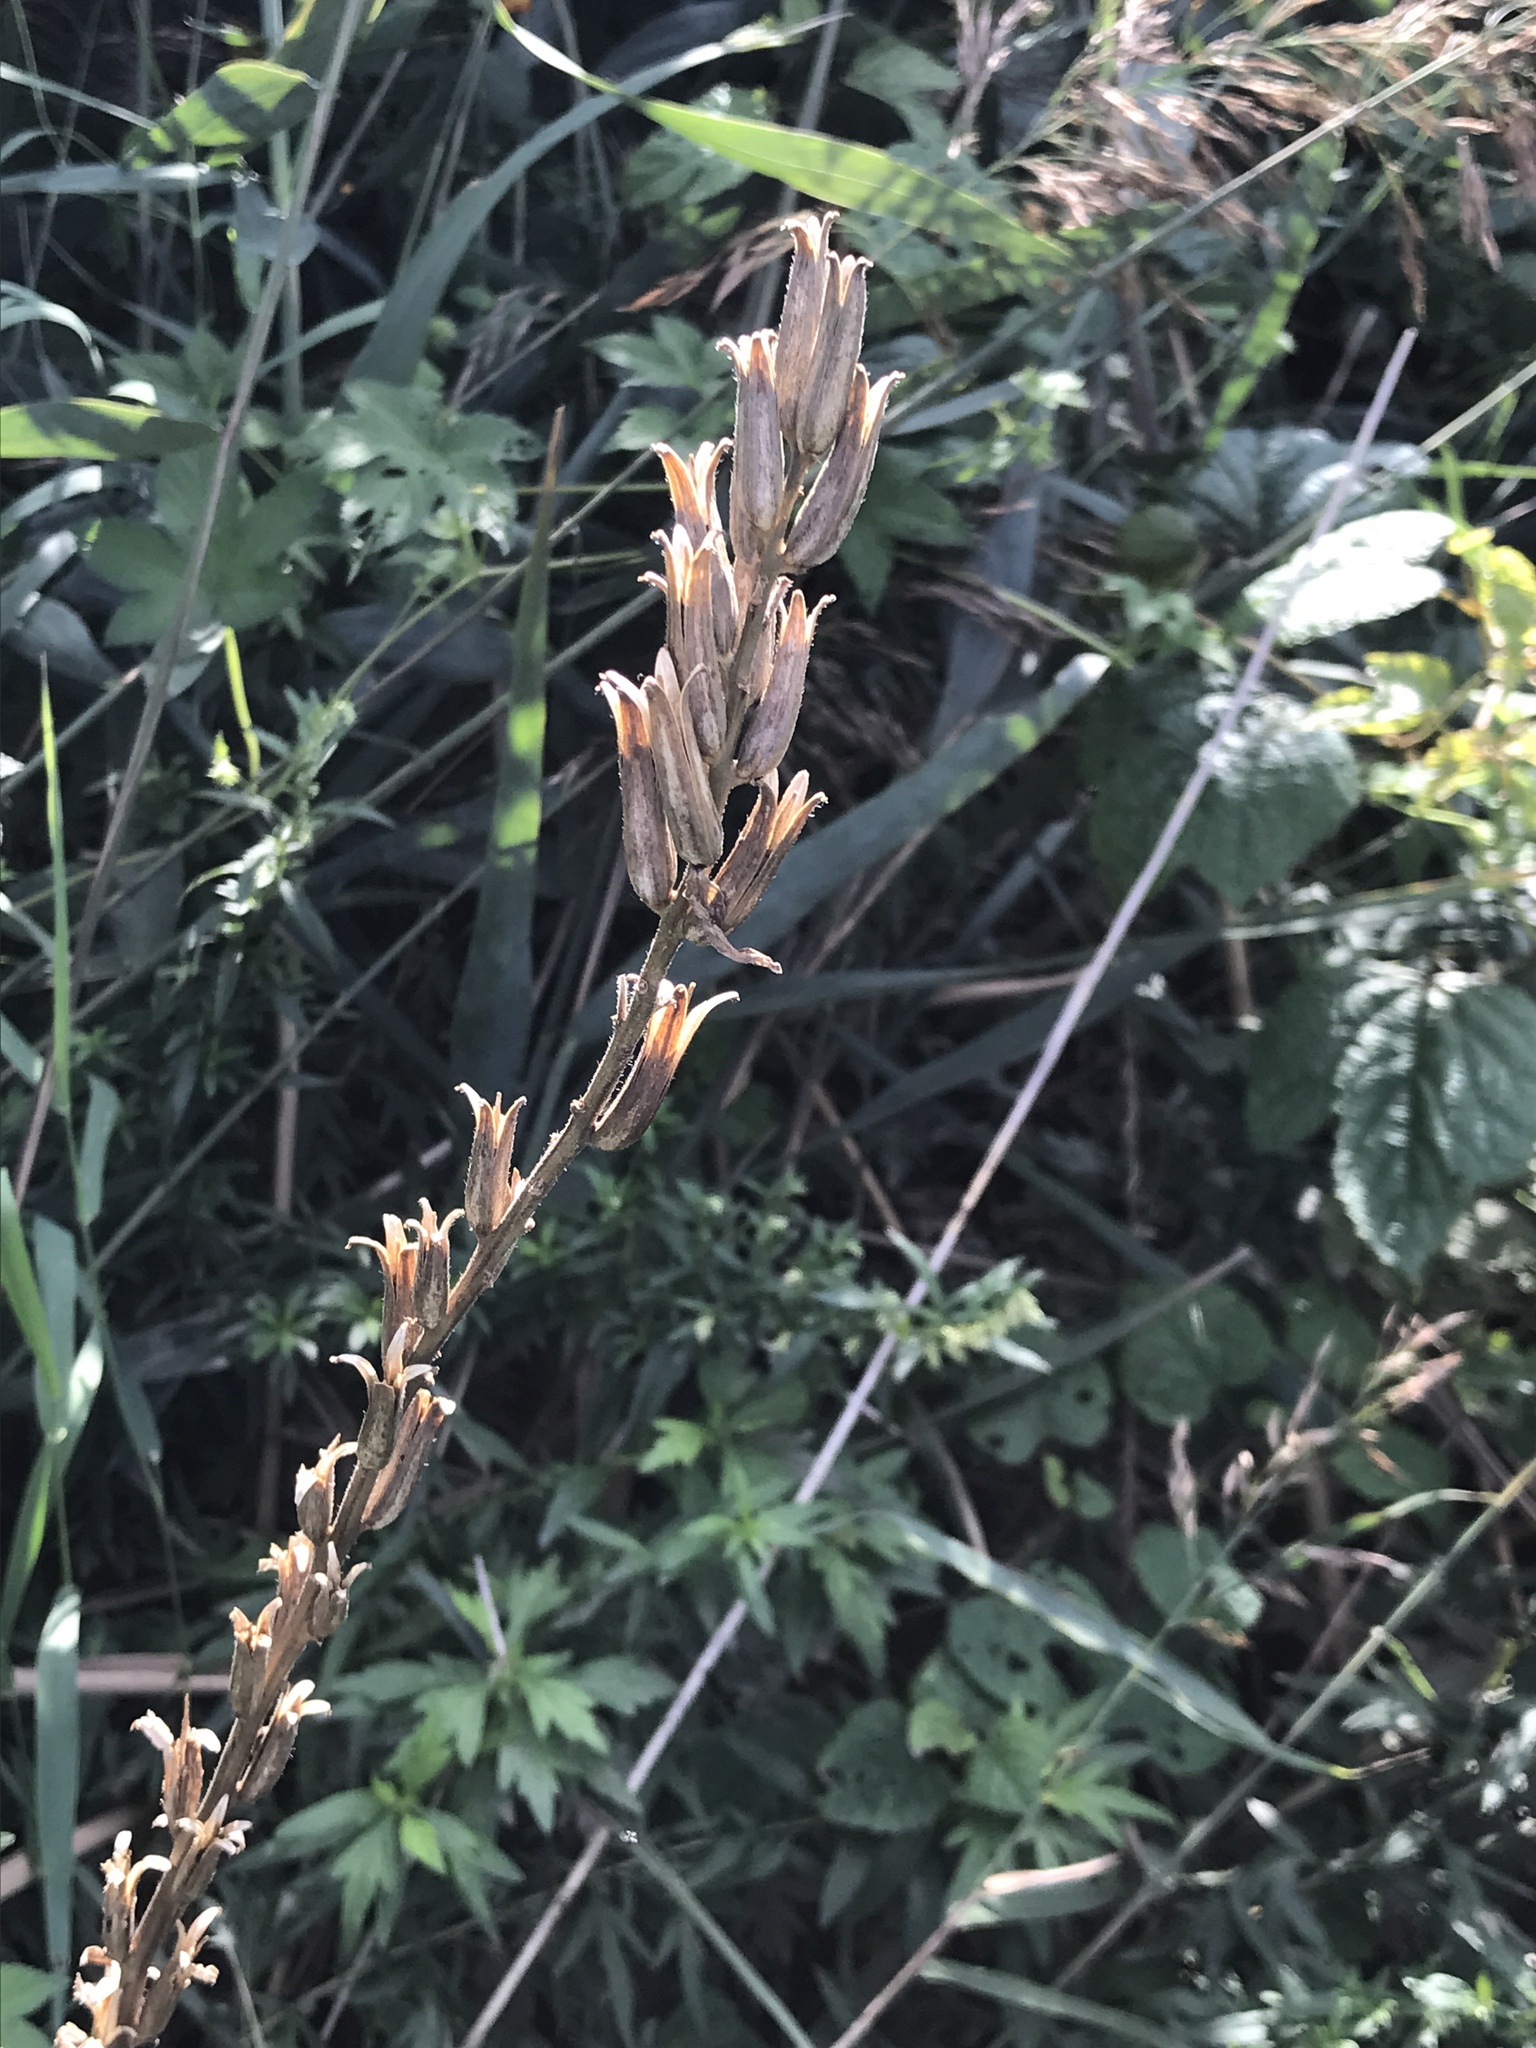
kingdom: Plantae
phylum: Tracheophyta
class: Magnoliopsida
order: Myrtales
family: Onagraceae
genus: Oenothera
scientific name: Oenothera biennis
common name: Common evening-primrose
